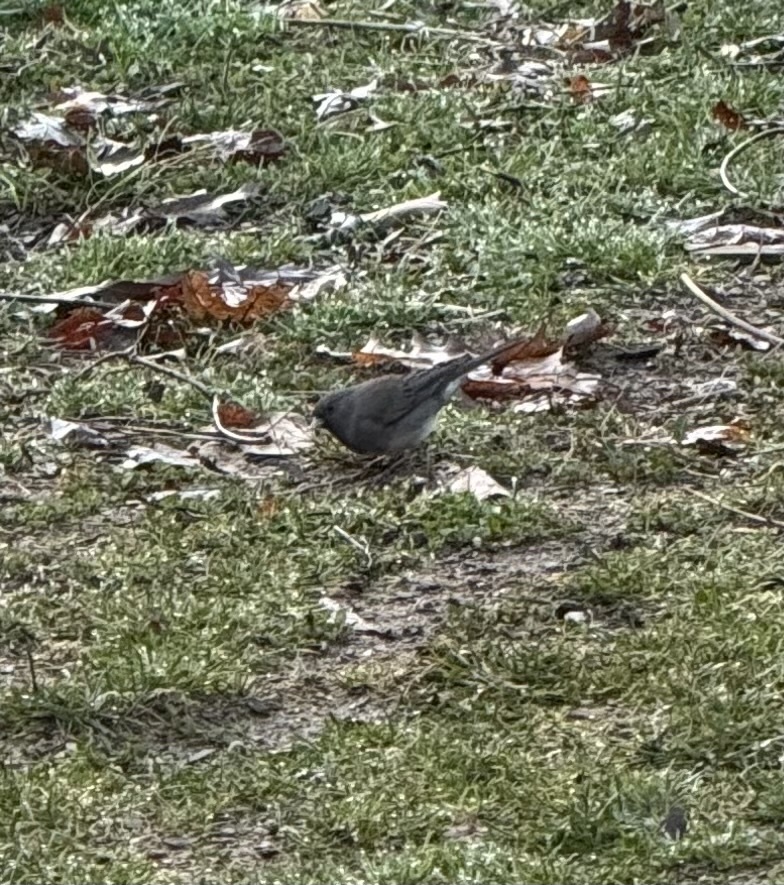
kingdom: Animalia
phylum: Chordata
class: Aves
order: Passeriformes
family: Passerellidae
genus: Junco
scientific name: Junco hyemalis
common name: Dark-eyed junco
